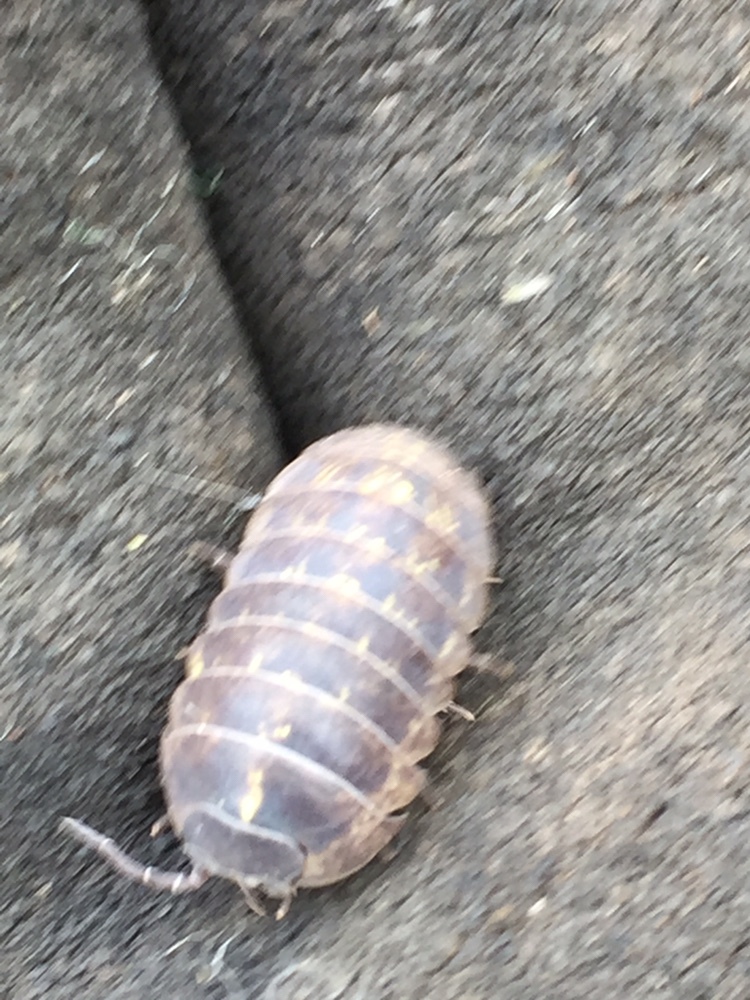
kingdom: Animalia
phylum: Arthropoda
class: Malacostraca
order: Isopoda
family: Armadillidiidae
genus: Armadillidium
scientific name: Armadillidium vulgare
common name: Common pill woodlouse
